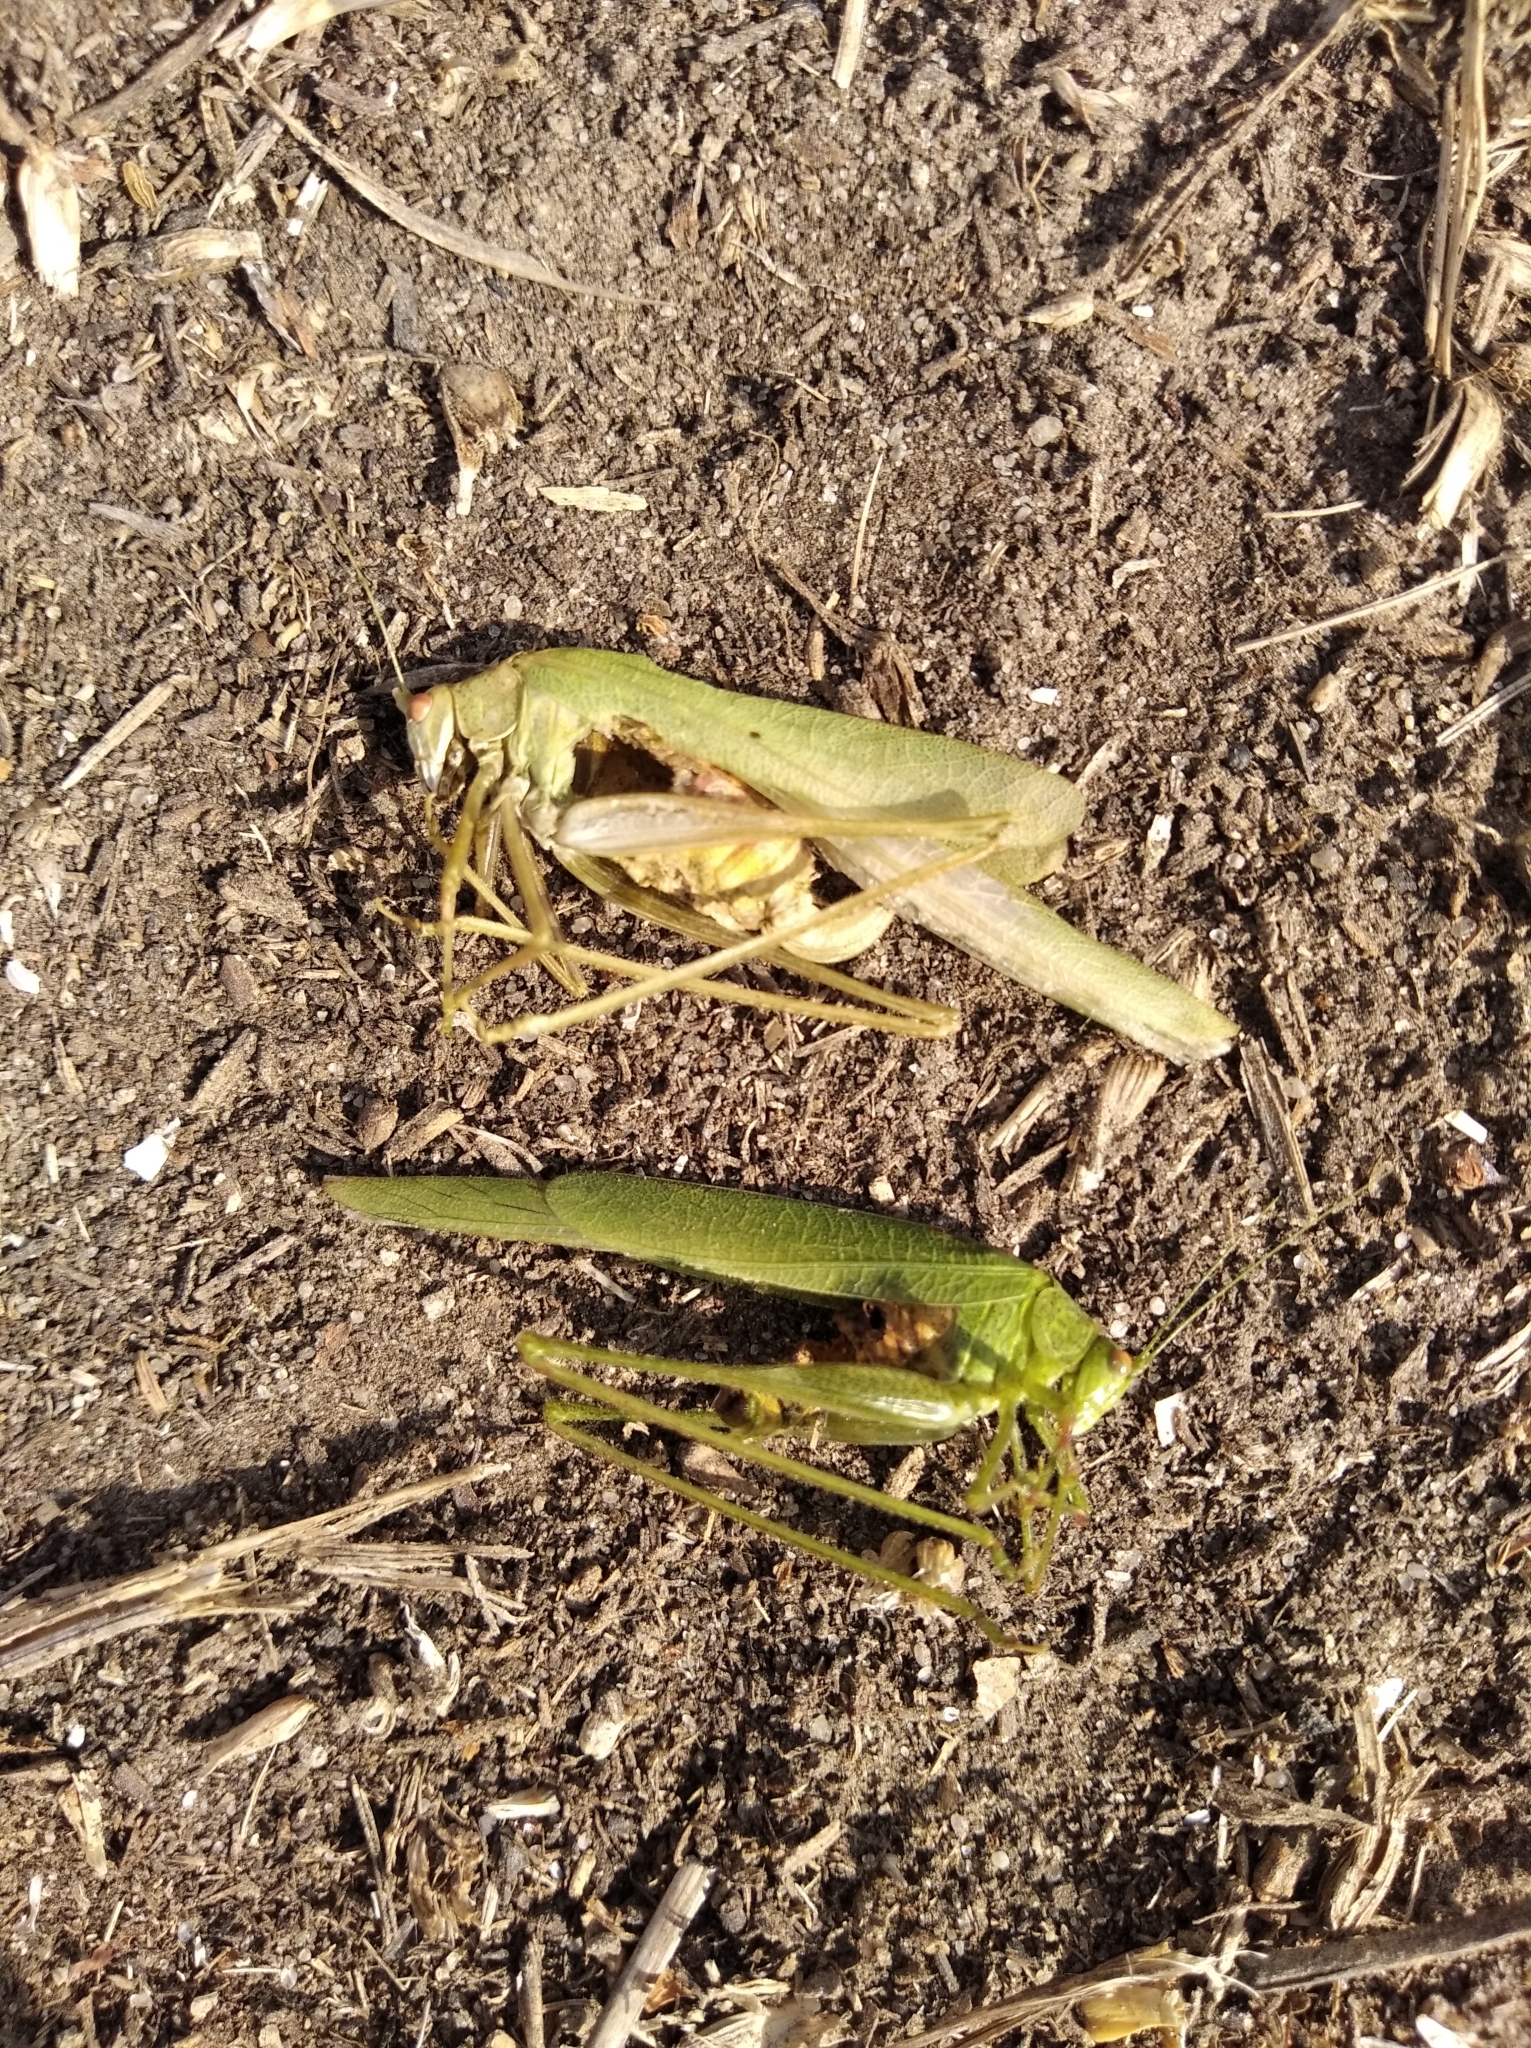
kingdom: Animalia
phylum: Arthropoda
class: Insecta
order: Orthoptera
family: Tettigoniidae
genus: Phaneroptera
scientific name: Phaneroptera nana
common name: Southern sickle bush-cricket
